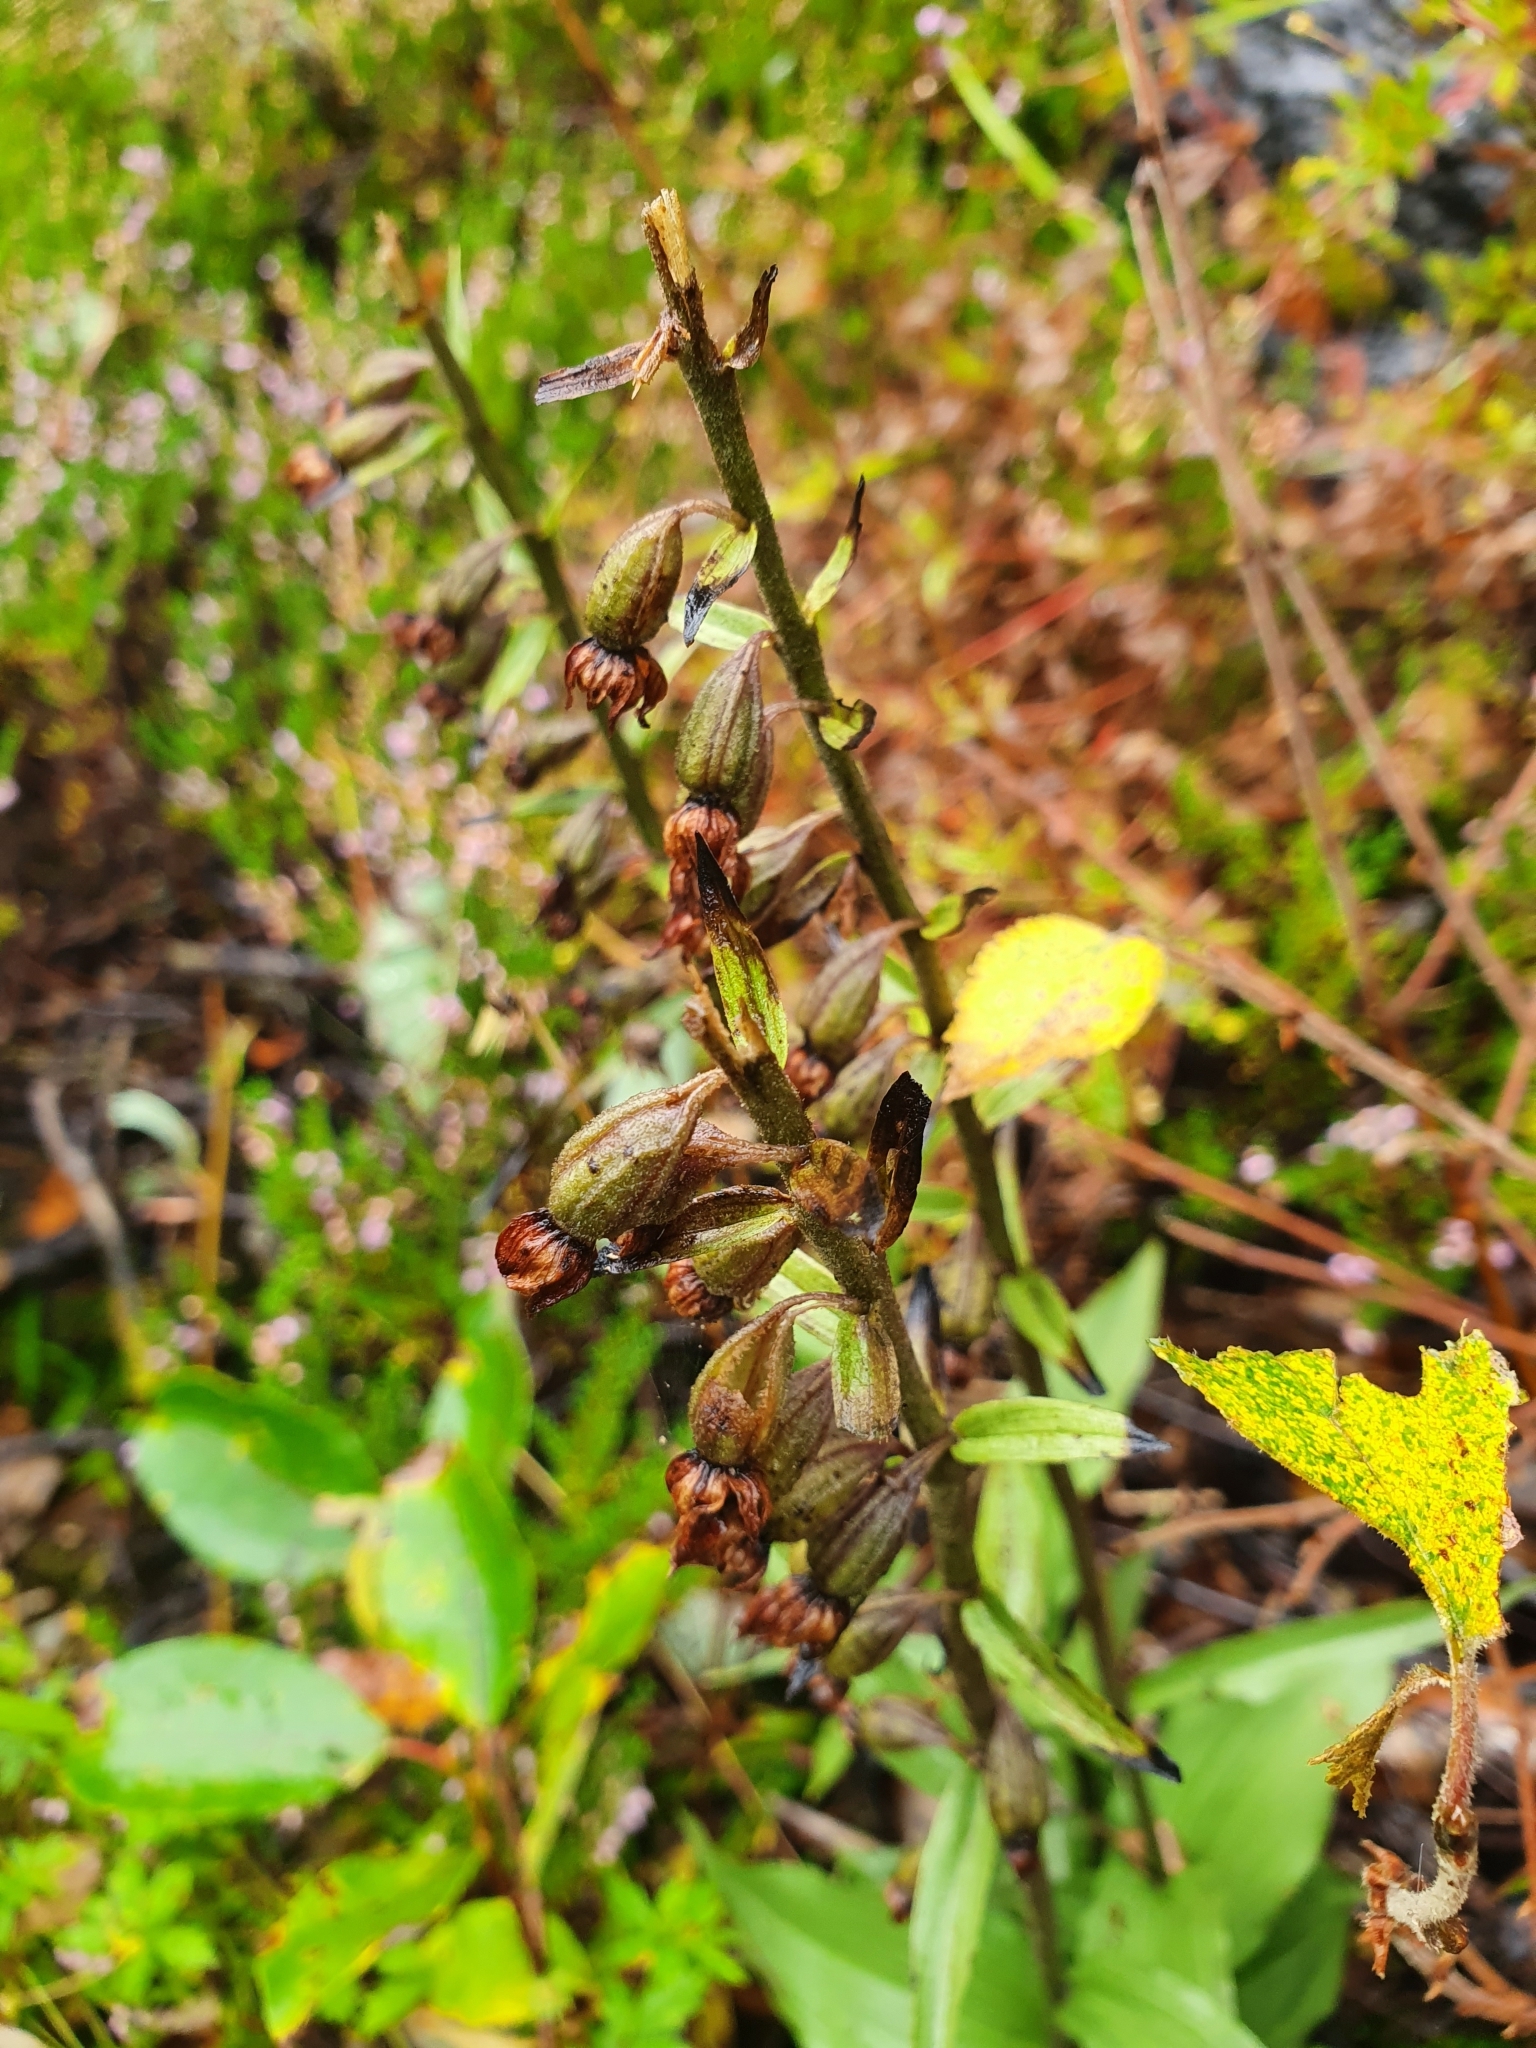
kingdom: Plantae
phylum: Tracheophyta
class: Liliopsida
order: Asparagales
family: Orchidaceae
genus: Epipactis
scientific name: Epipactis helleborine
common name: Broad-leaved helleborine
